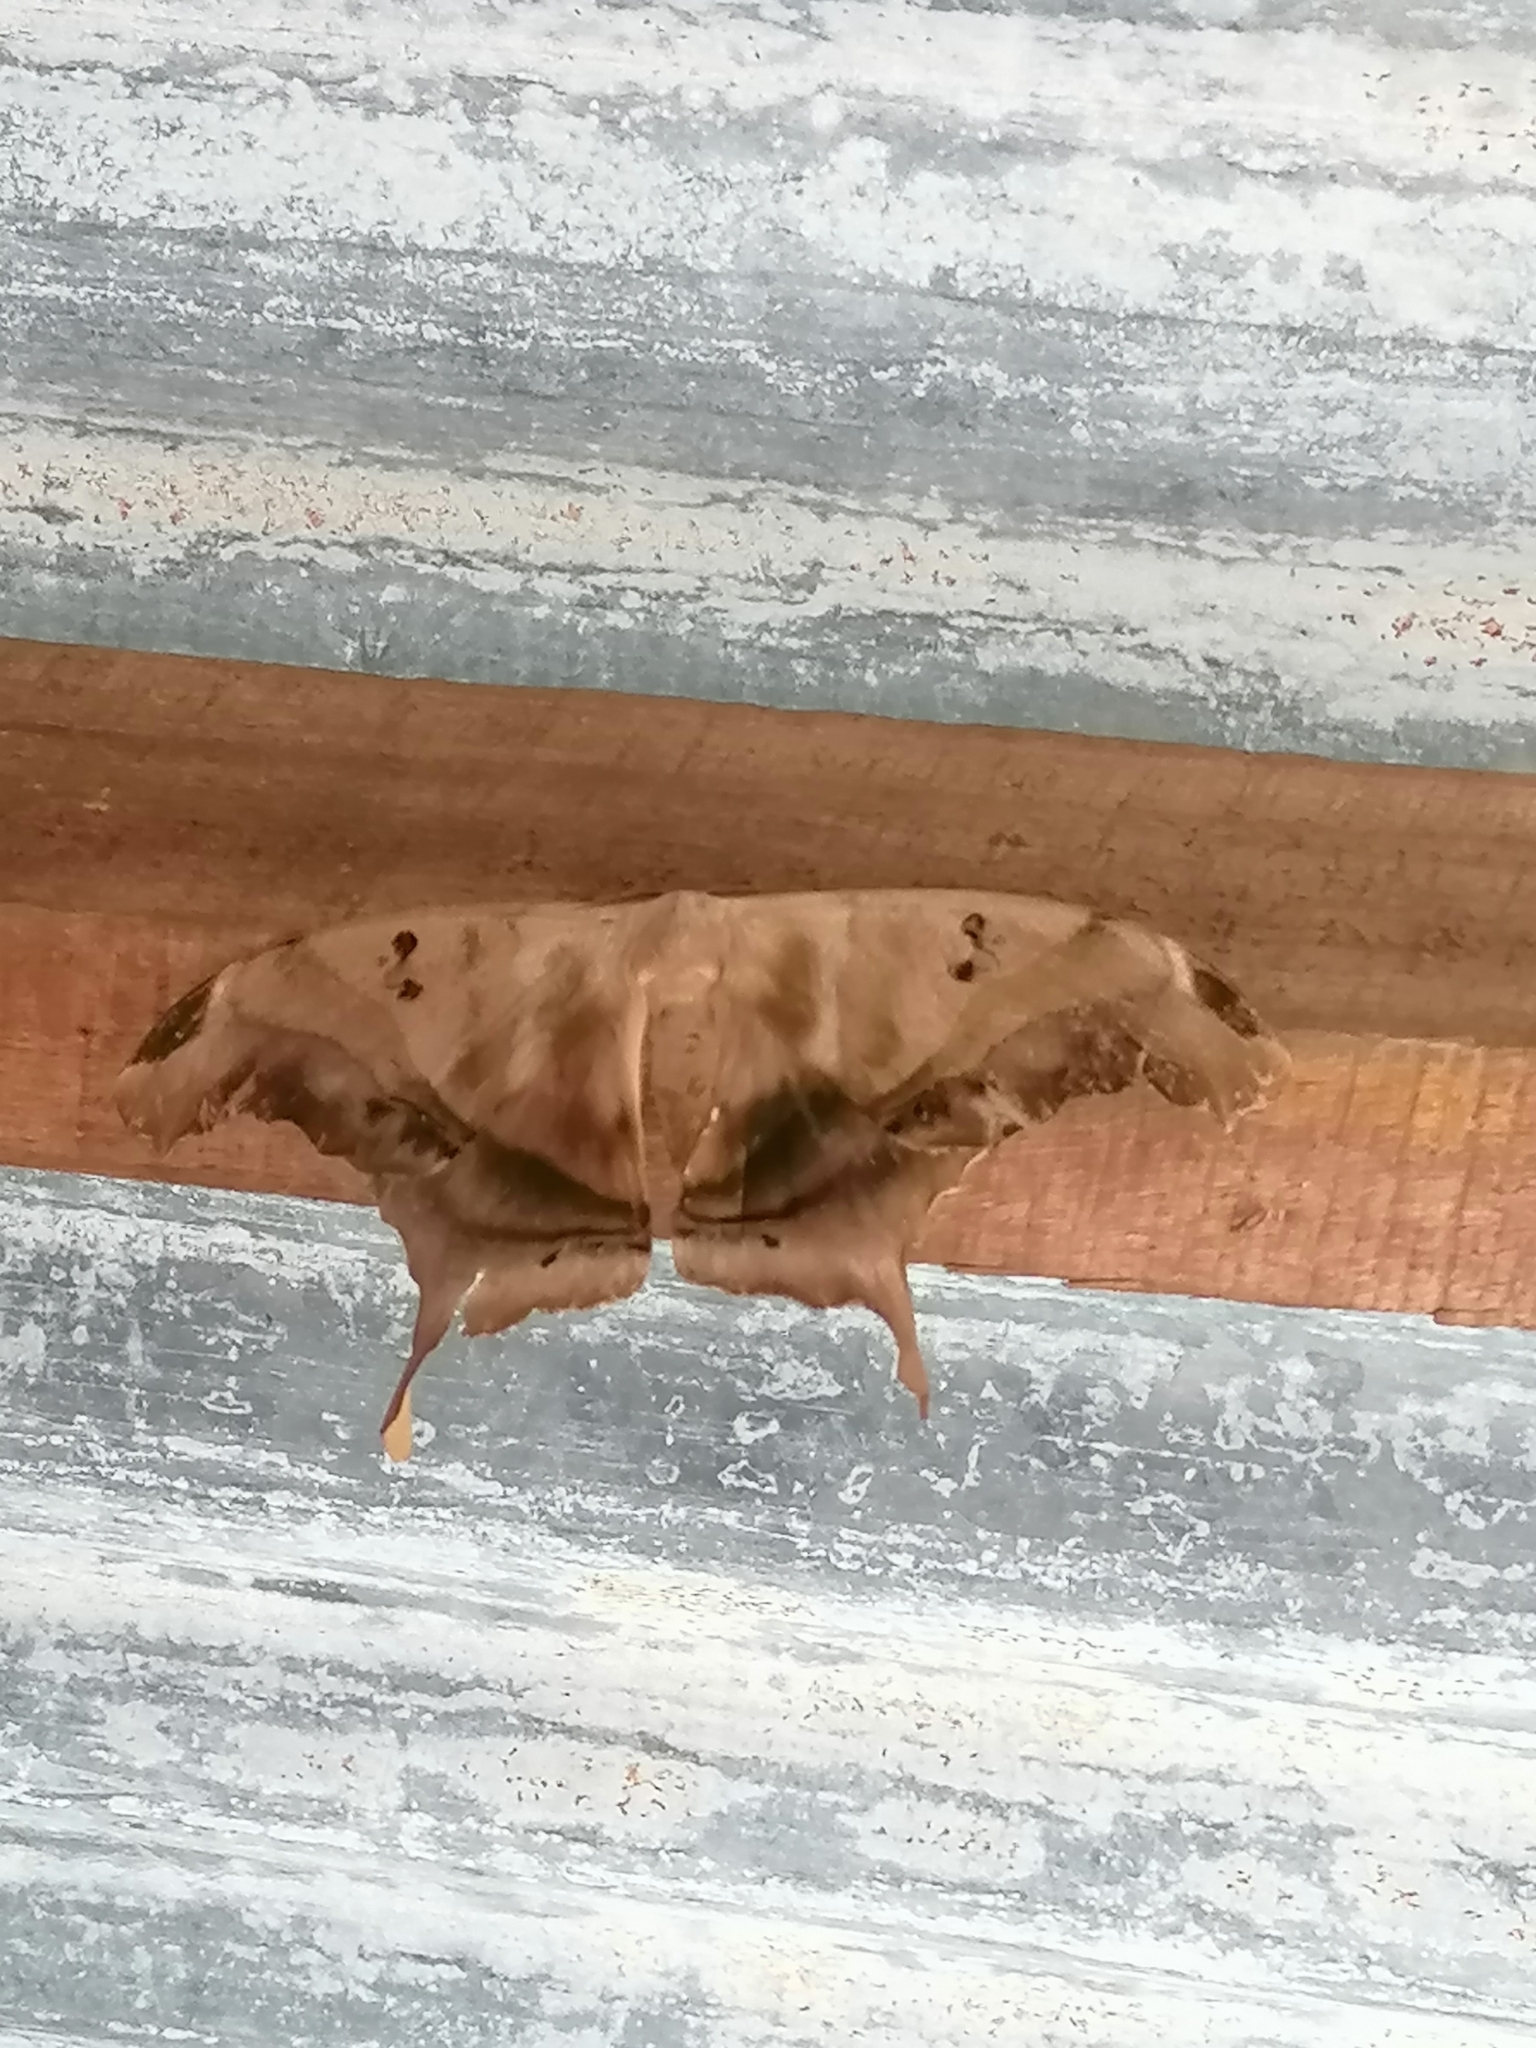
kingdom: Animalia
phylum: Arthropoda
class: Insecta
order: Lepidoptera
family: Saturniidae
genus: Titaea
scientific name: Titaea tamerlan
